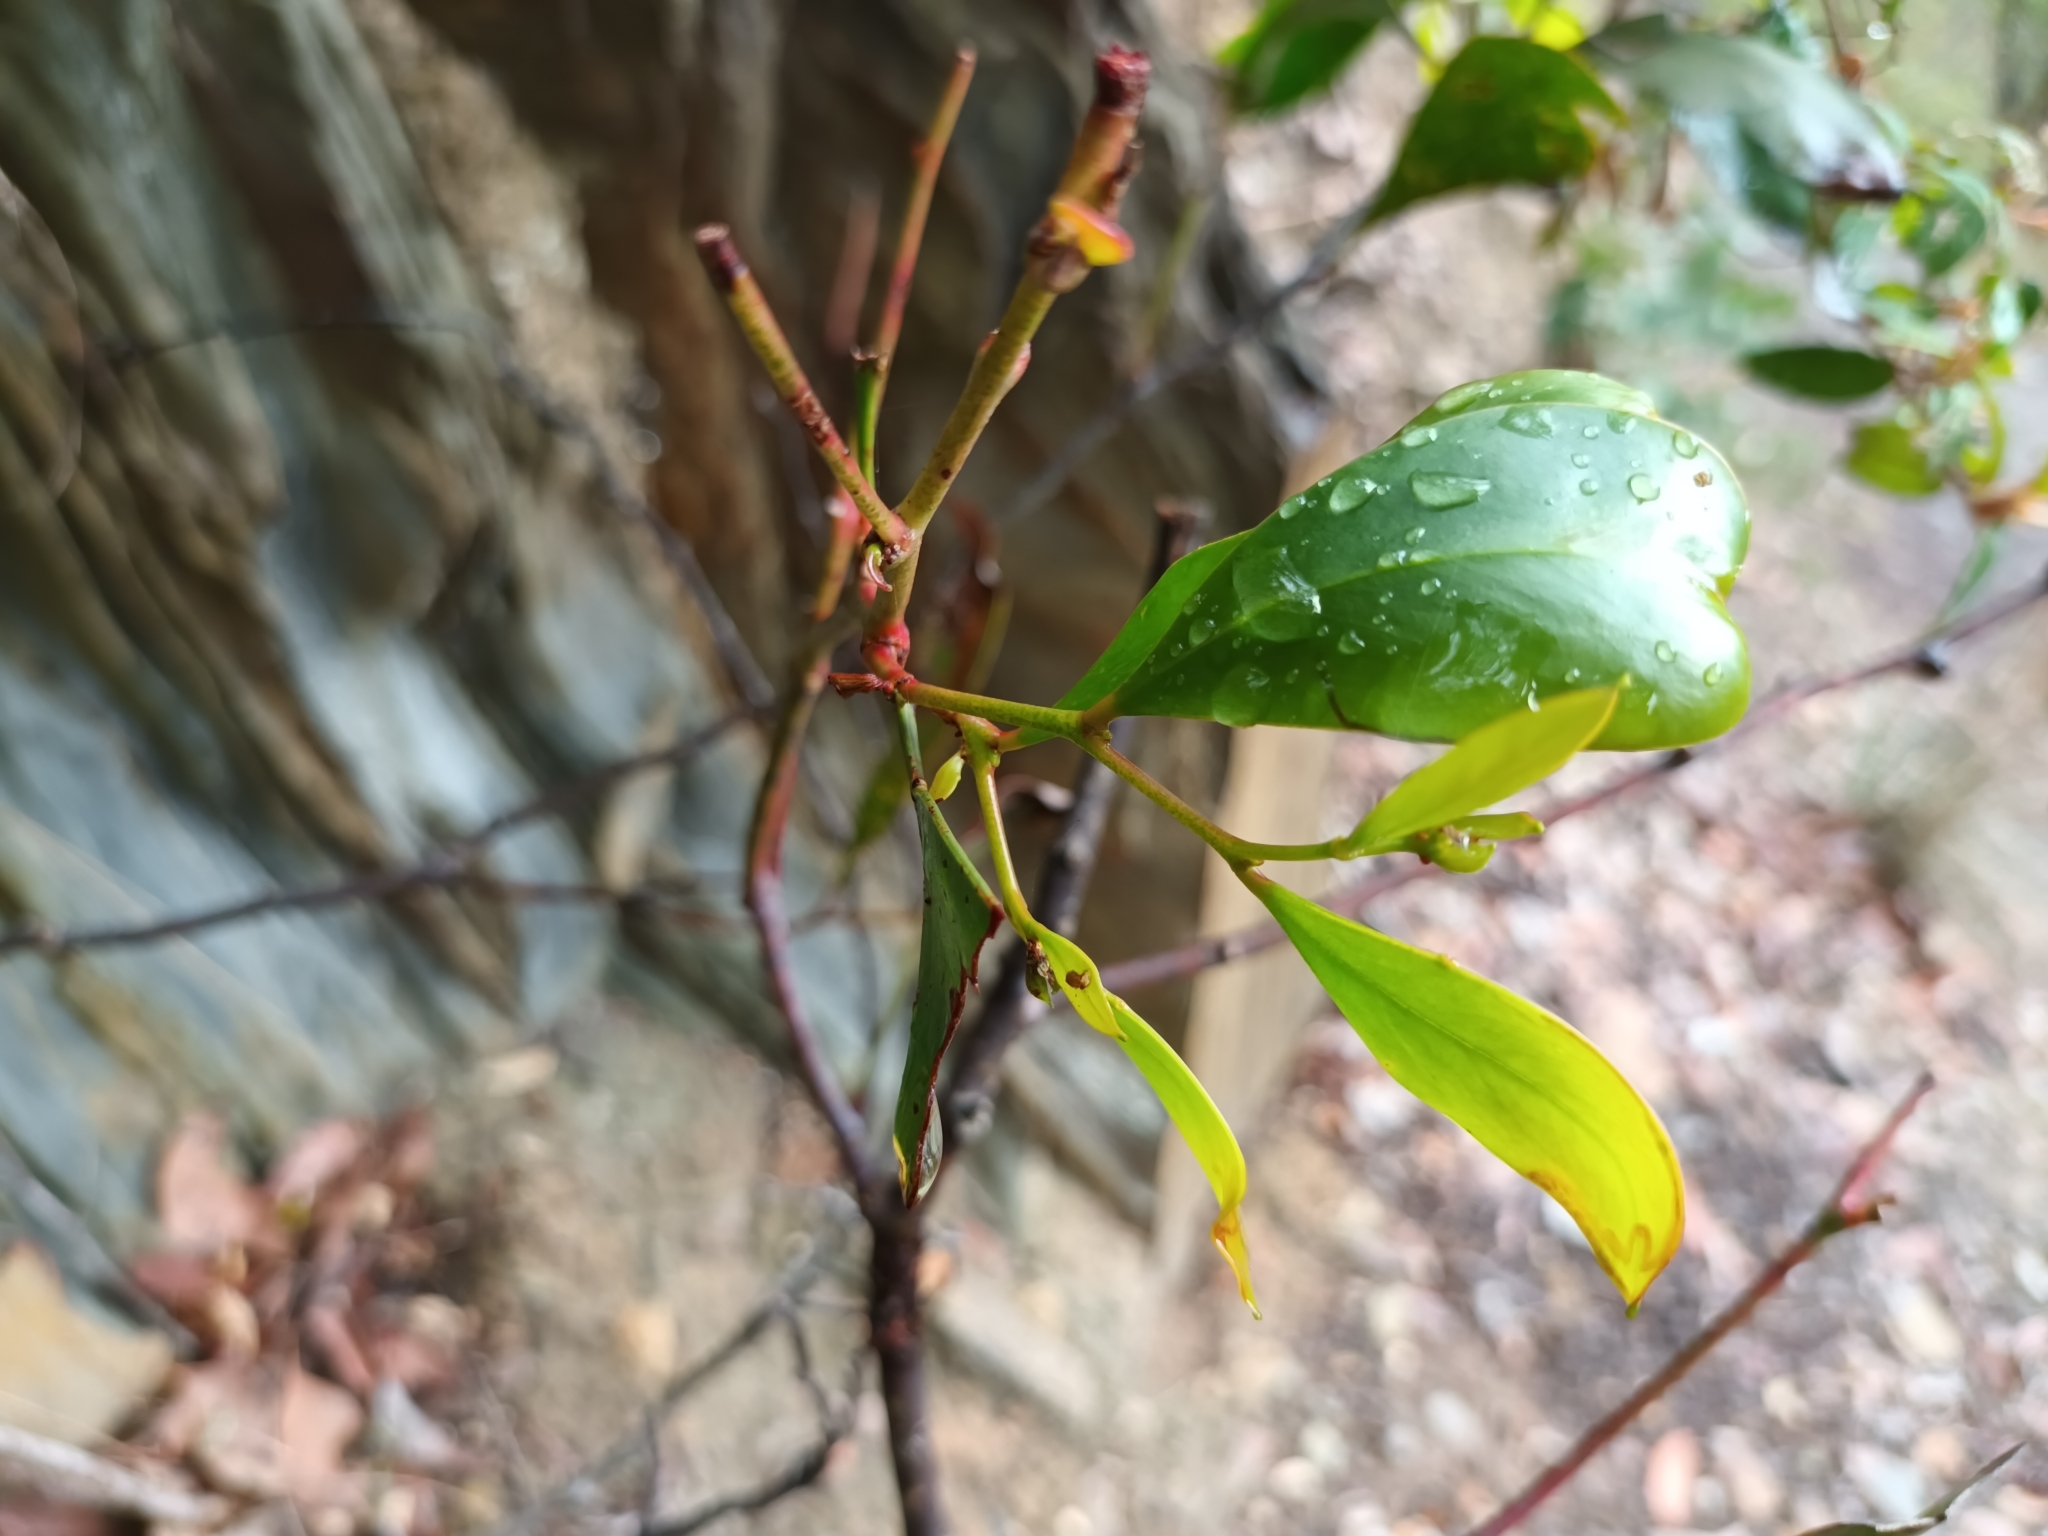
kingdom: Plantae
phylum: Tracheophyta
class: Magnoliopsida
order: Fabales
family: Fabaceae
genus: Acacia
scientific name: Acacia pycnantha
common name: Golden wattle
